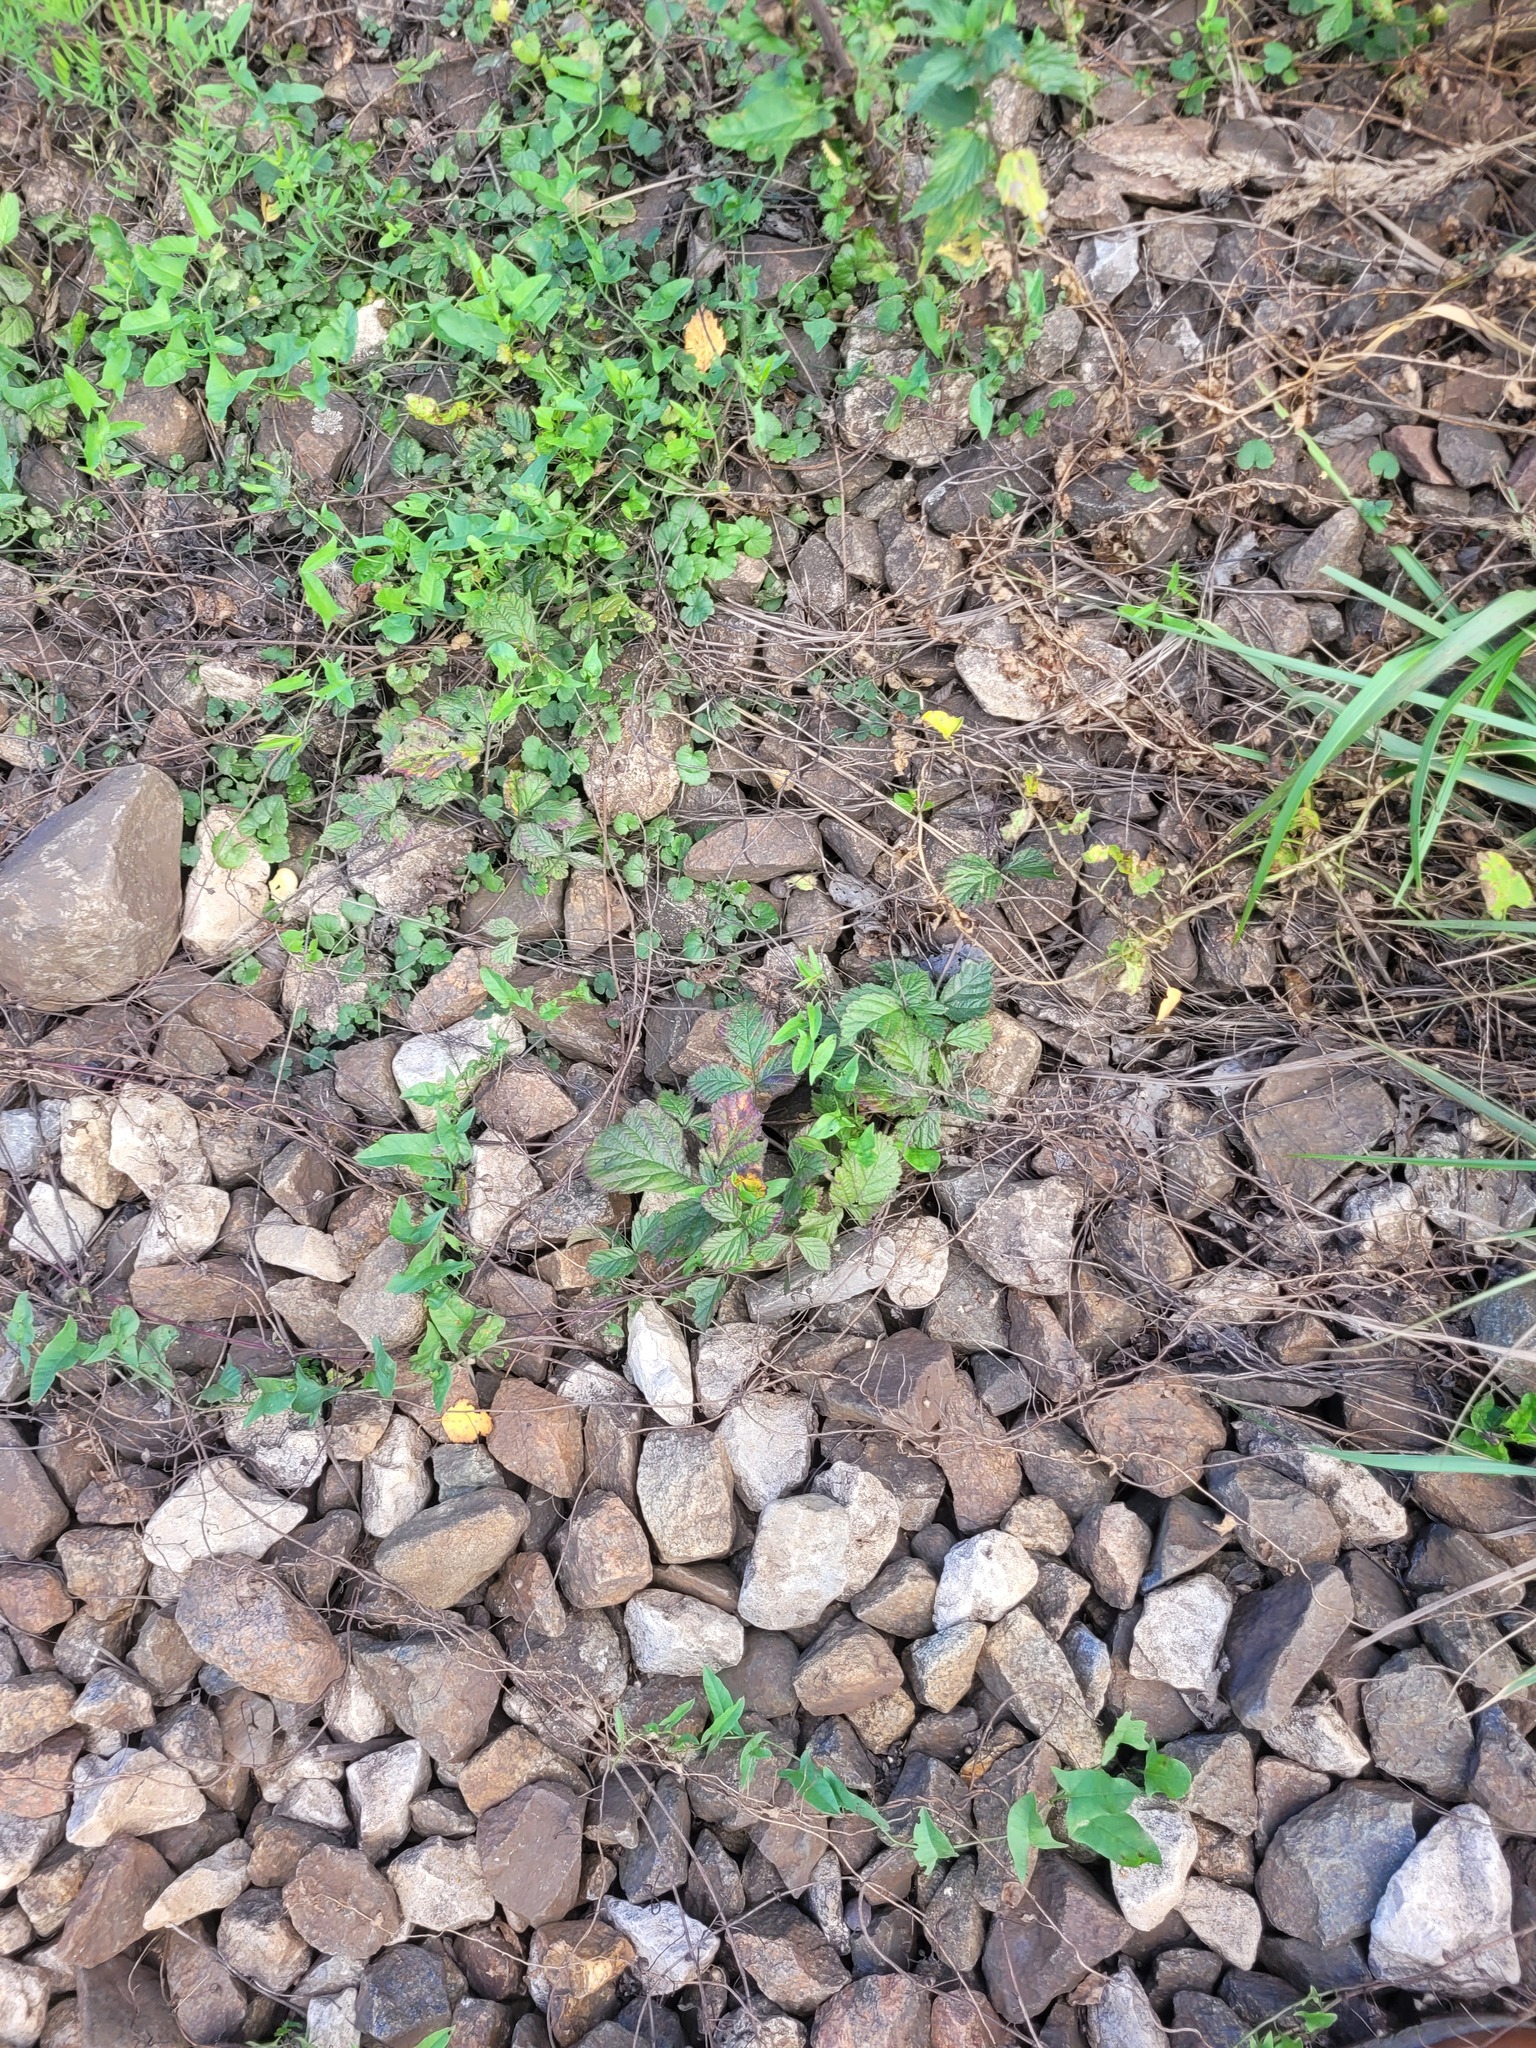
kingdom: Plantae
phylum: Tracheophyta
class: Magnoliopsida
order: Rosales
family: Rosaceae
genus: Rubus
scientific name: Rubus saxatilis
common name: Stone bramble
